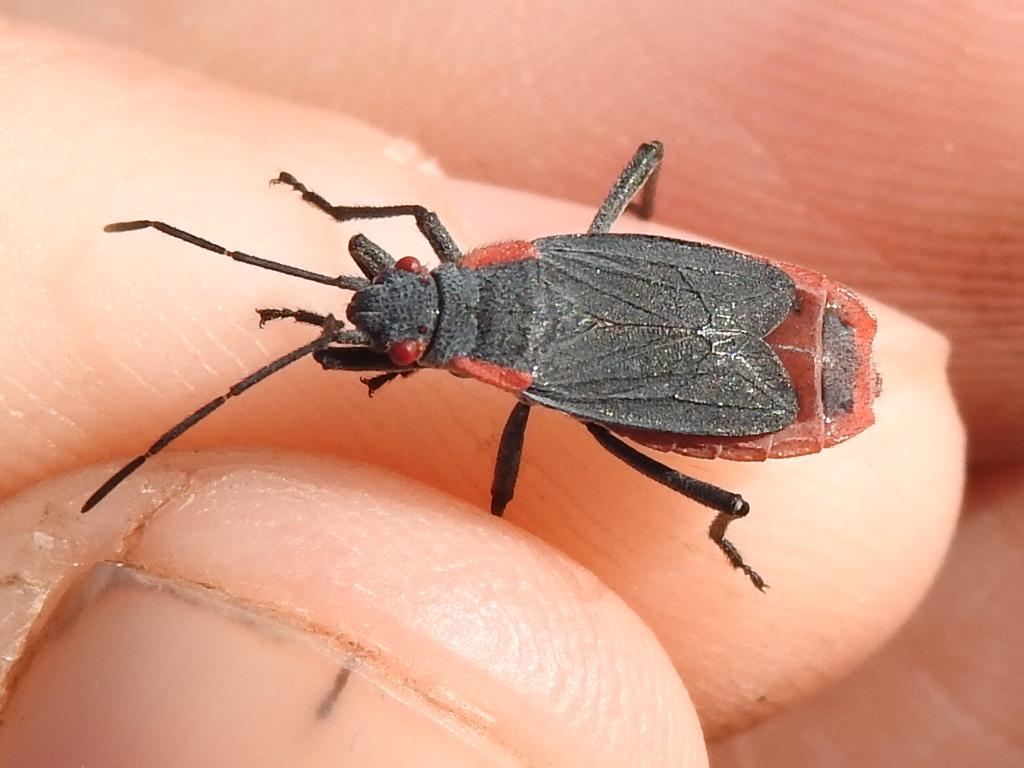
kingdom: Animalia
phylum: Arthropoda
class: Insecta
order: Hemiptera
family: Rhopalidae
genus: Jadera
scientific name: Jadera haematoloma
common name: Red-shouldered bug
